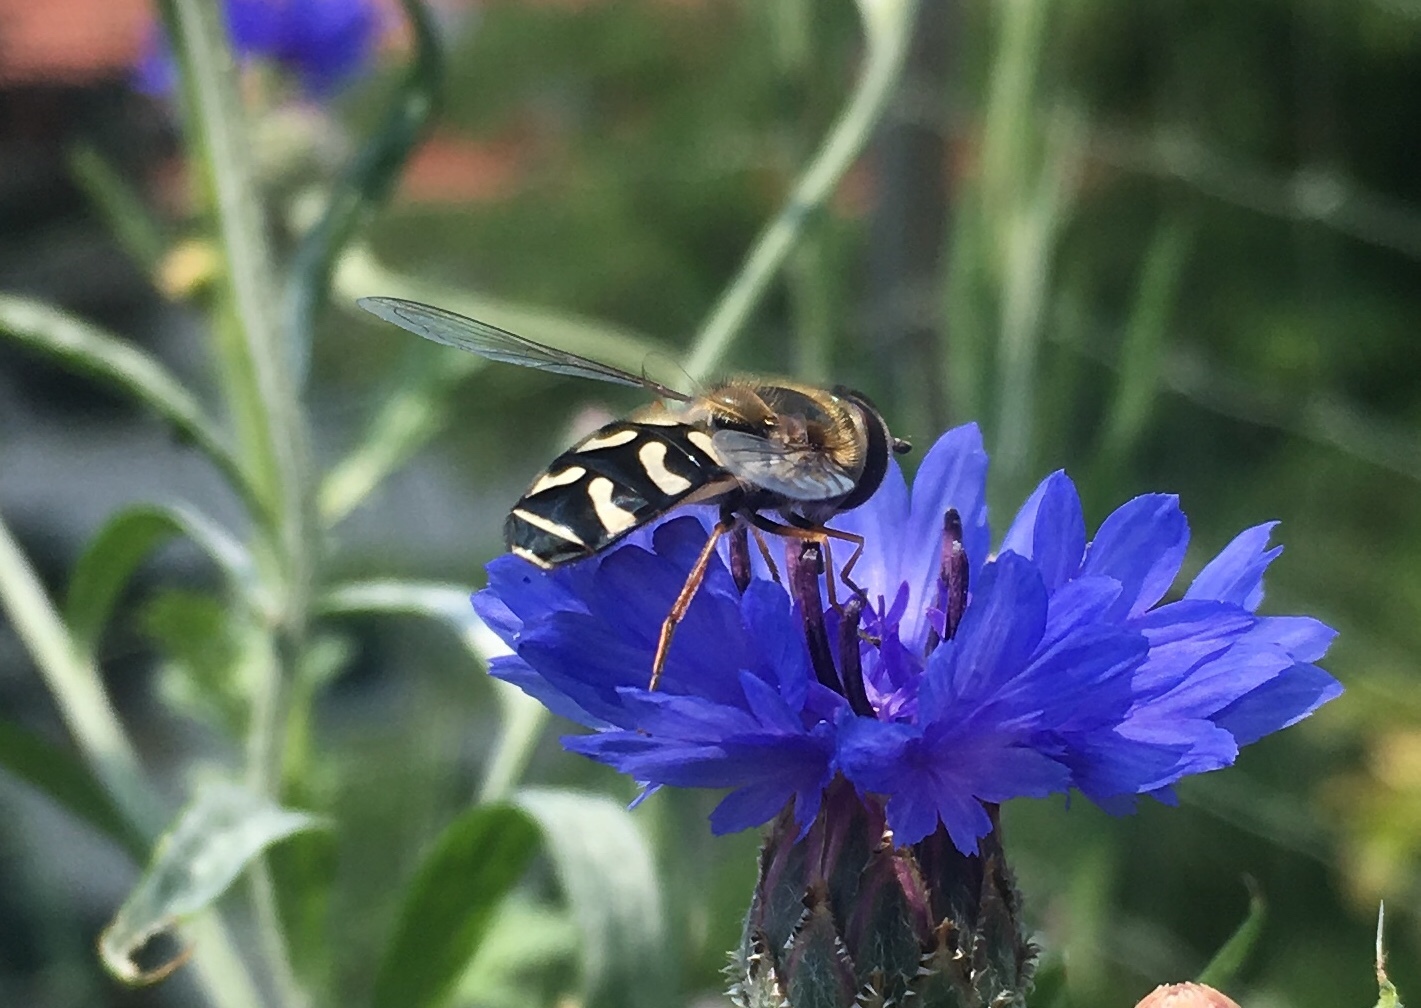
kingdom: Animalia
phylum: Arthropoda
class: Insecta
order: Diptera
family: Syrphidae
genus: Scaeva
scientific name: Scaeva pyrastri
